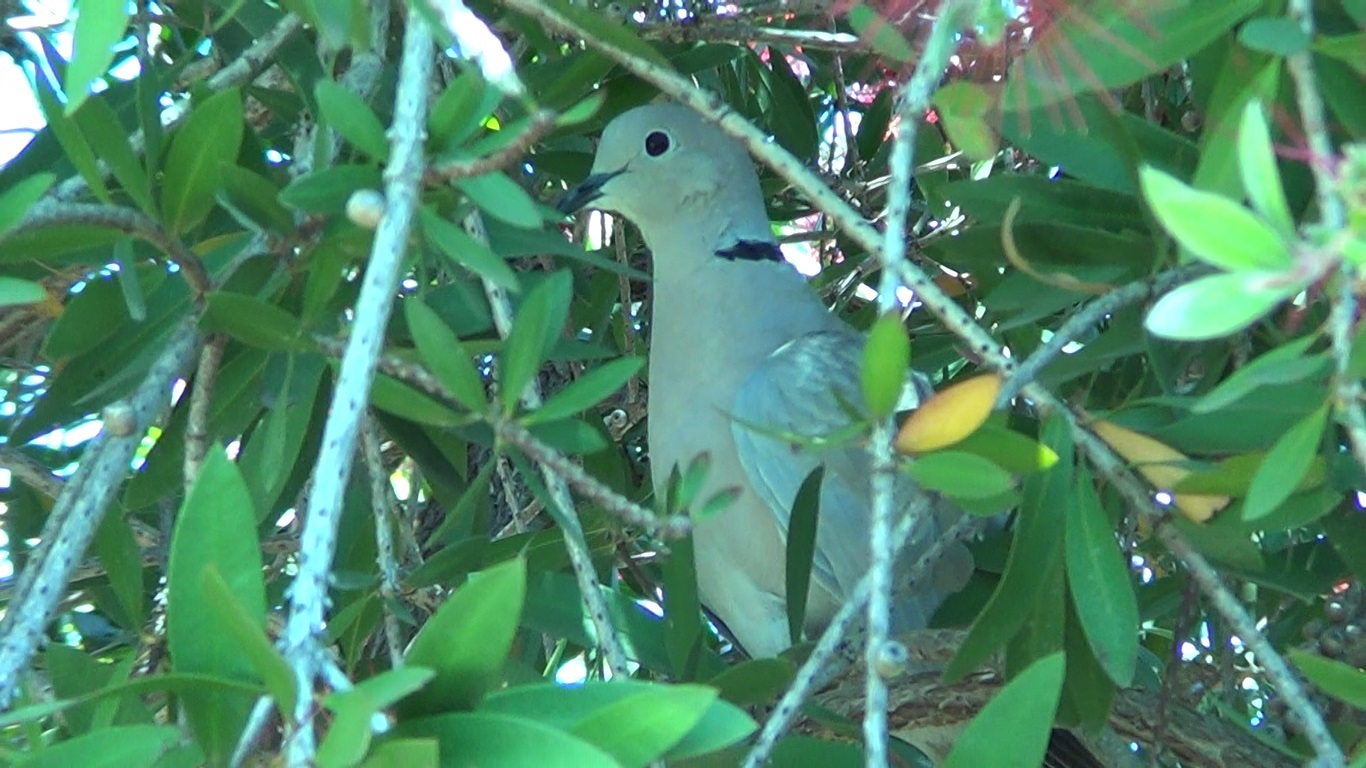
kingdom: Animalia
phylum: Chordata
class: Aves
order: Columbiformes
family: Columbidae
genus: Streptopelia
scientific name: Streptopelia decaocto
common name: Eurasian collared dove
